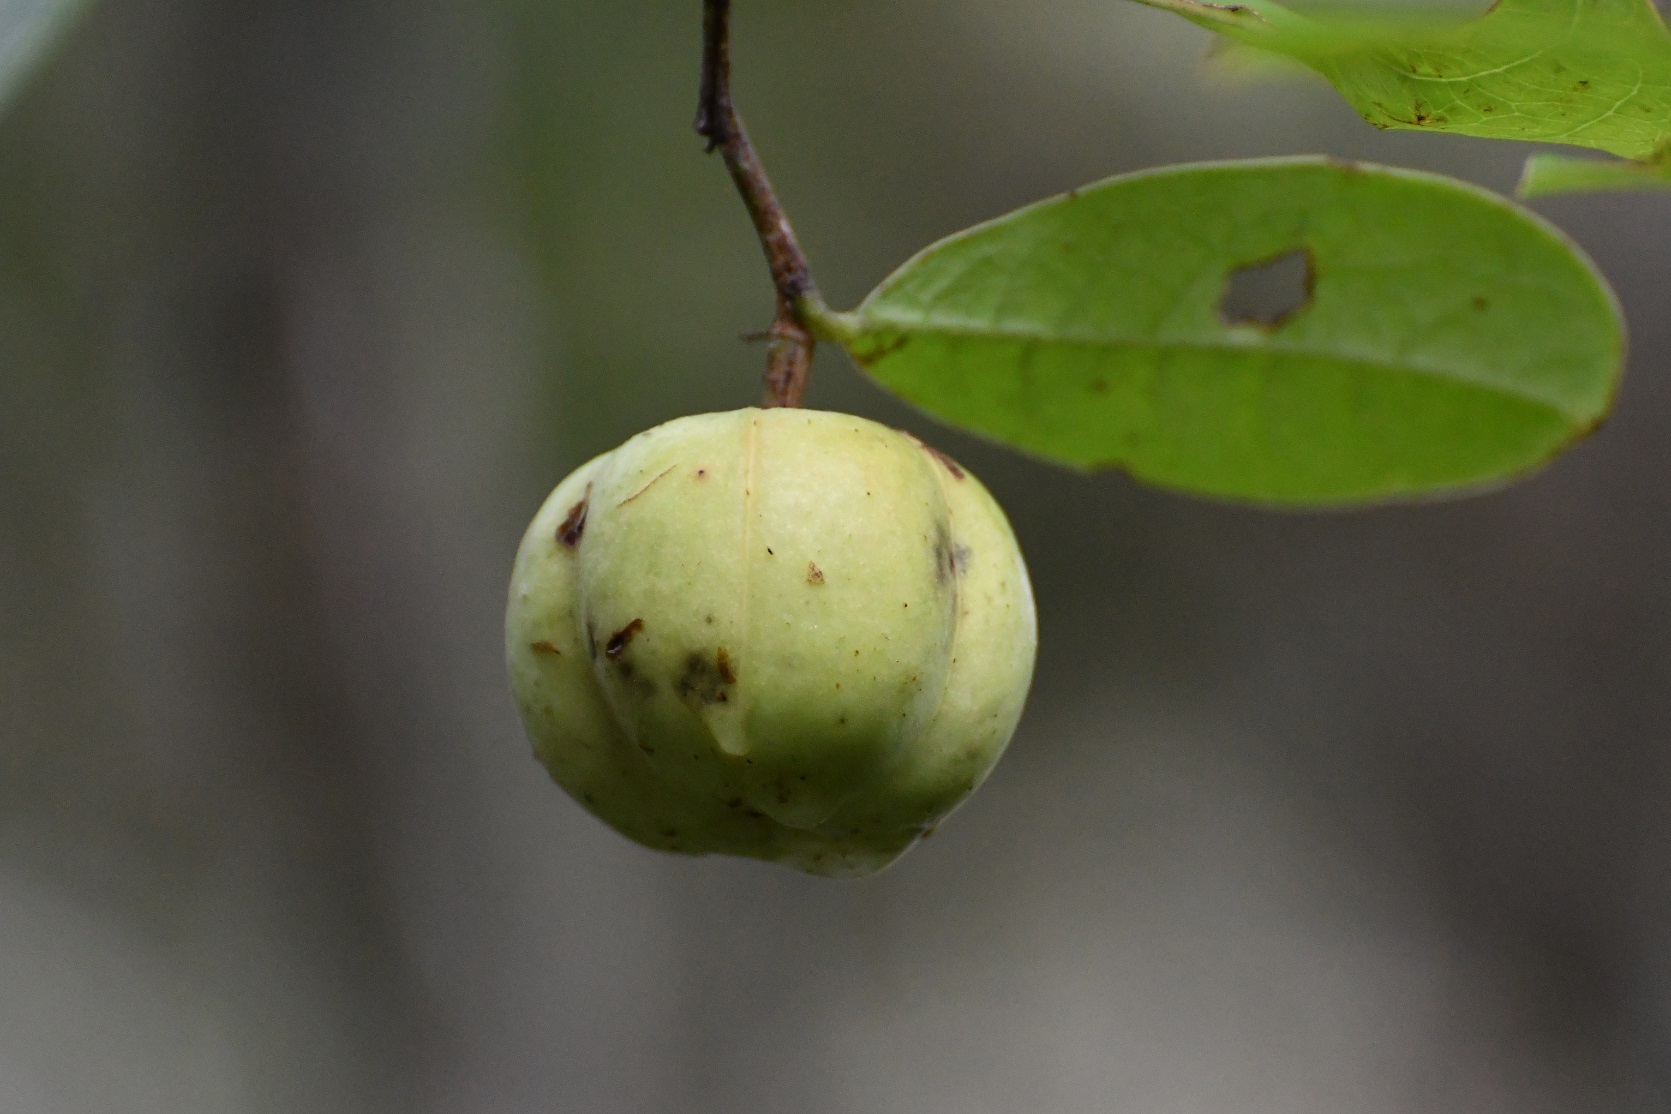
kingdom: Plantae
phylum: Tracheophyta
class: Magnoliopsida
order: Malpighiales
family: Phyllanthaceae
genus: Phyllanthus
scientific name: Phyllanthus grandifolius
